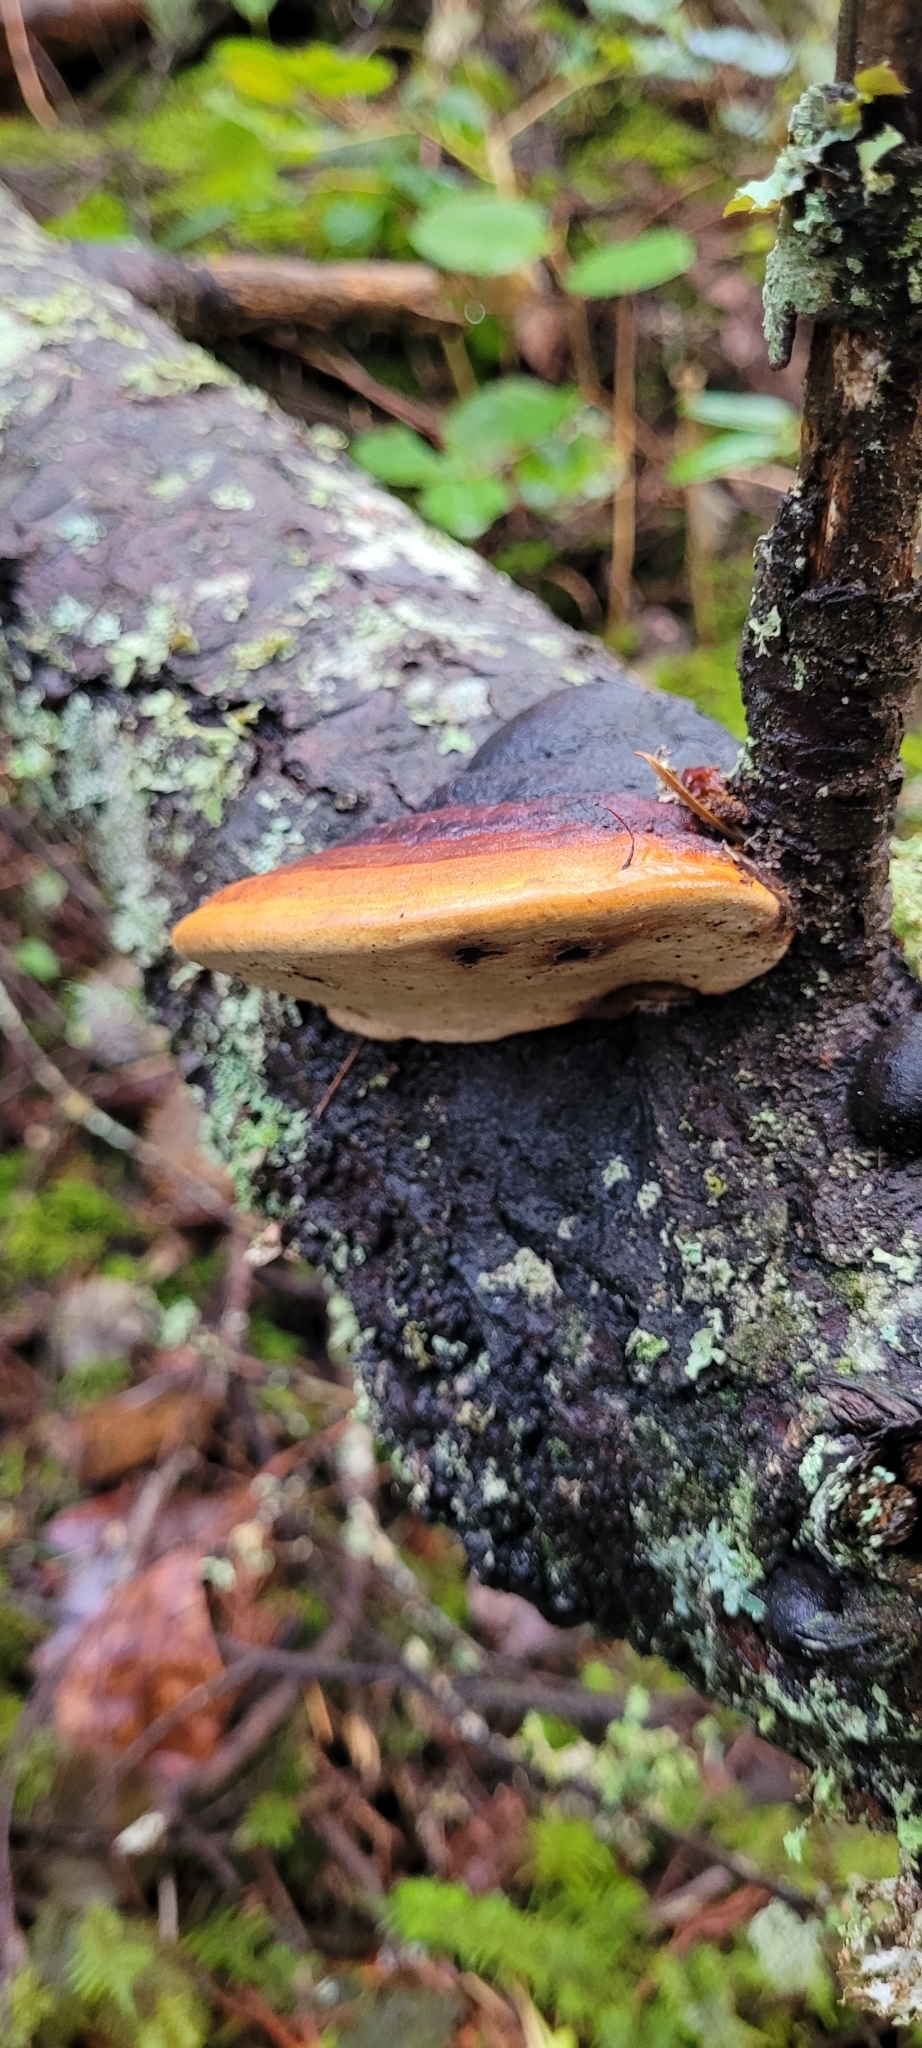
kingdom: Fungi
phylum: Basidiomycota
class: Agaricomycetes
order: Polyporales
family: Fomitopsidaceae
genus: Fomitopsis
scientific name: Fomitopsis mounceae
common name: Northern red belt
